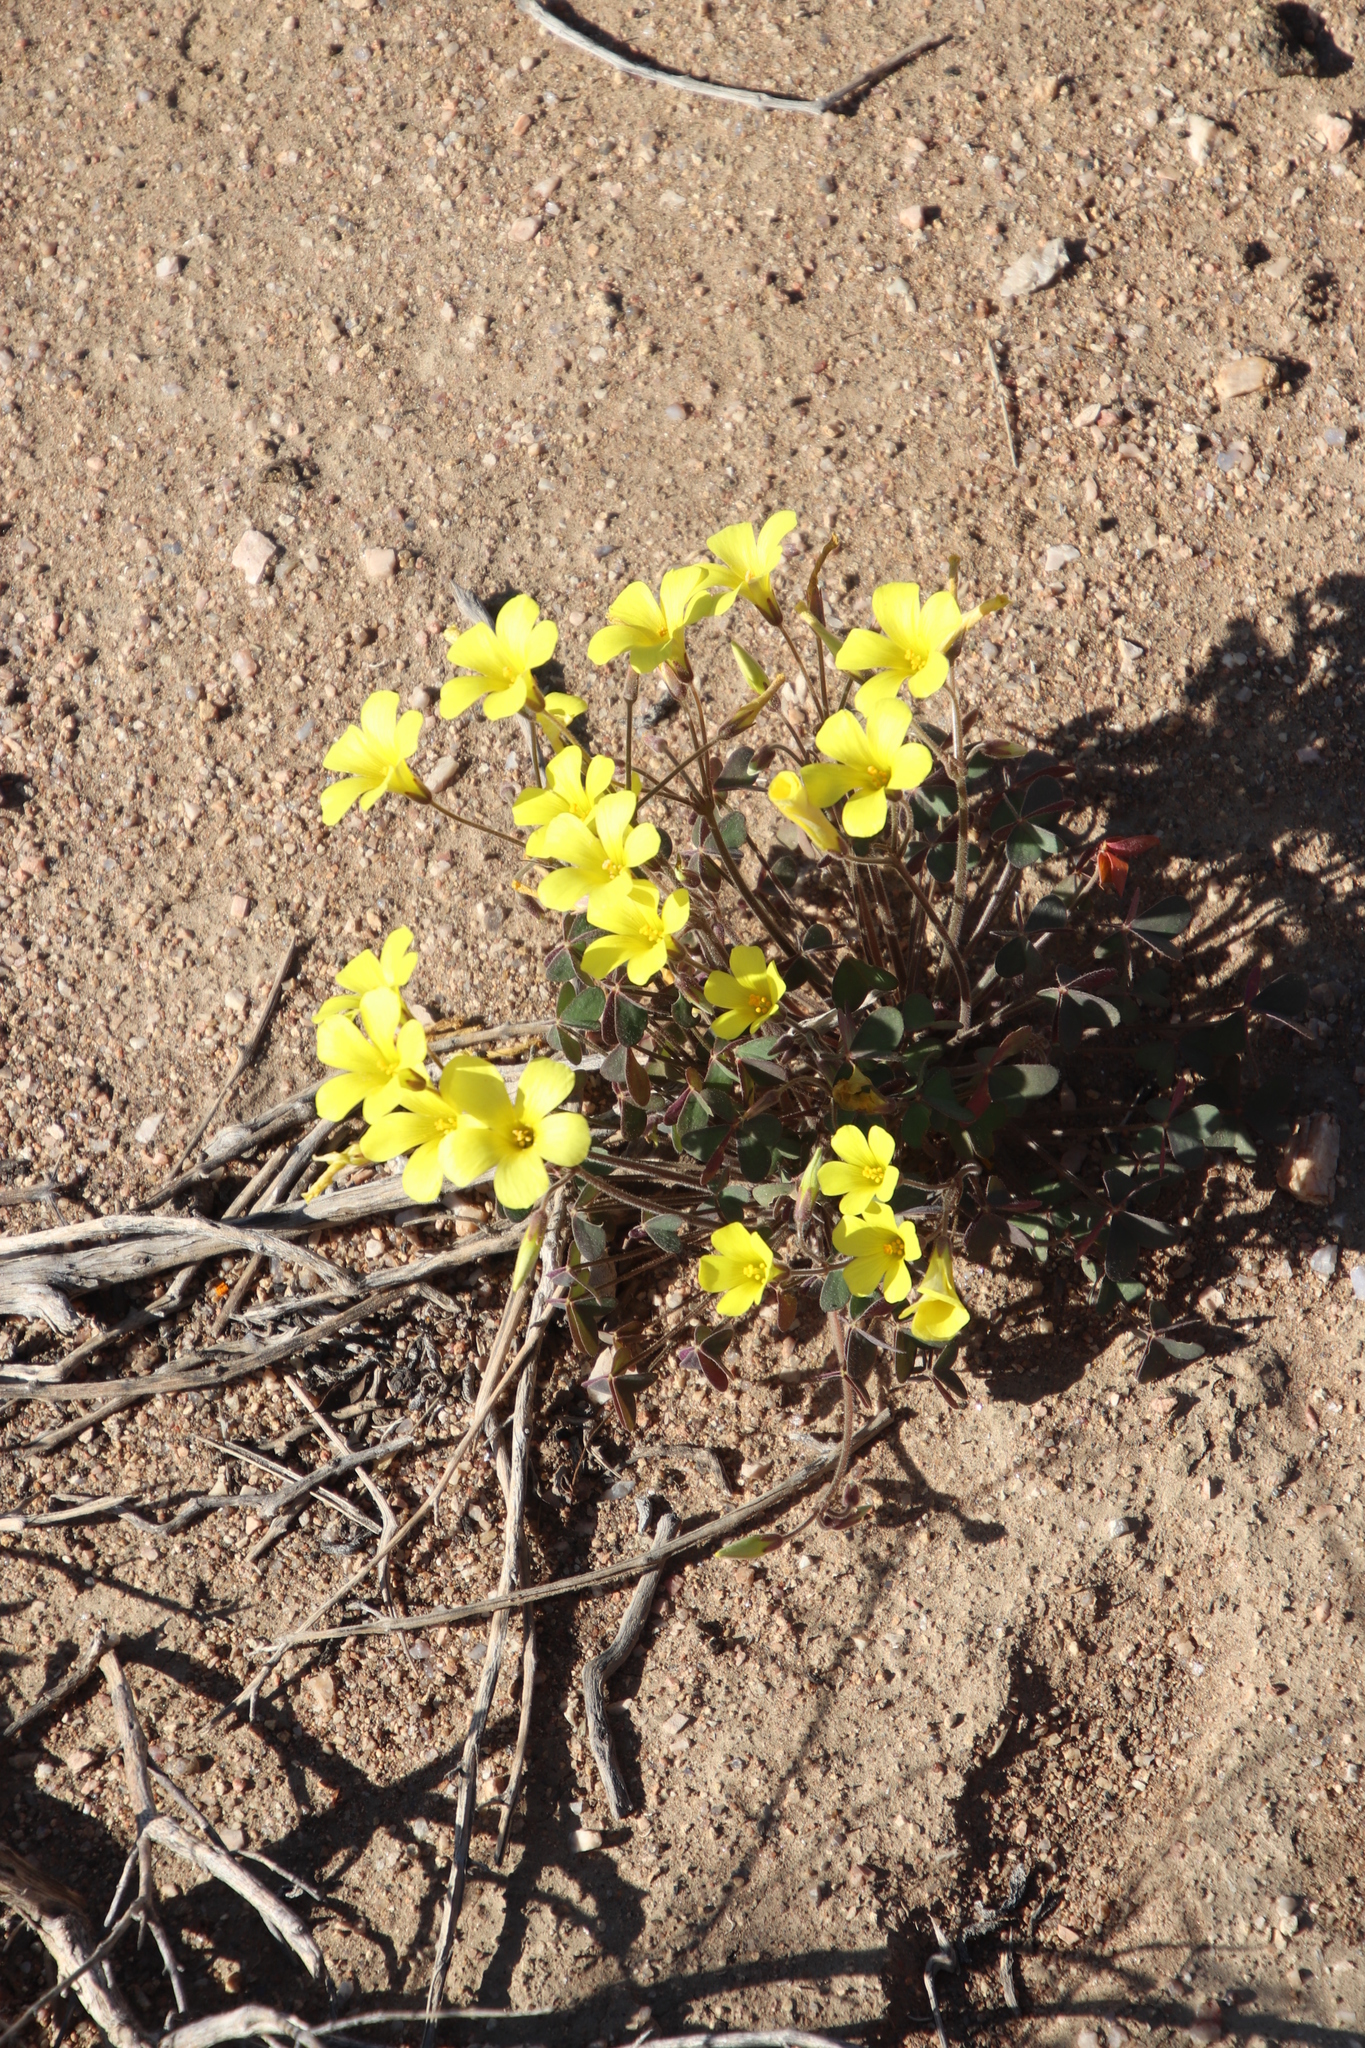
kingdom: Plantae
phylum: Tracheophyta
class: Magnoliopsida
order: Oxalidales
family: Oxalidaceae
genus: Oxalis
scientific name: Oxalis copiosa
